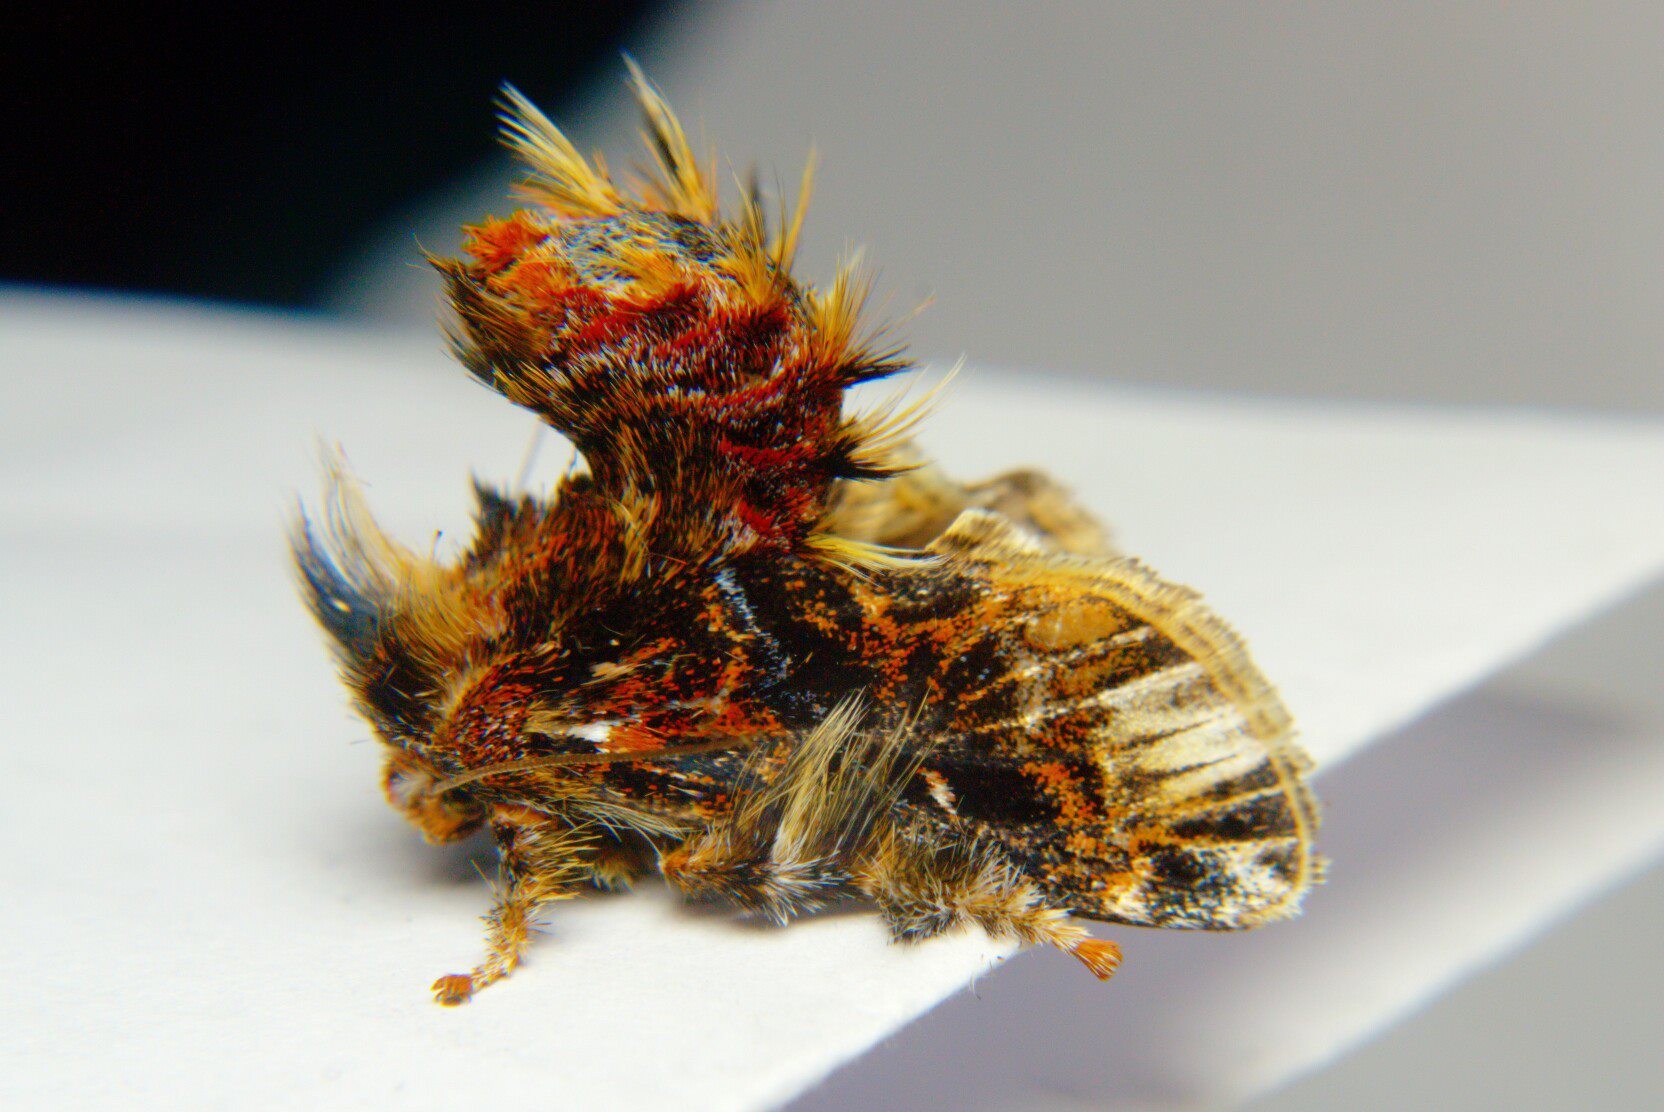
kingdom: Animalia
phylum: Arthropoda
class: Insecta
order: Lepidoptera
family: Limacodidae
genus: Belippa
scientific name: Belippa horrida
